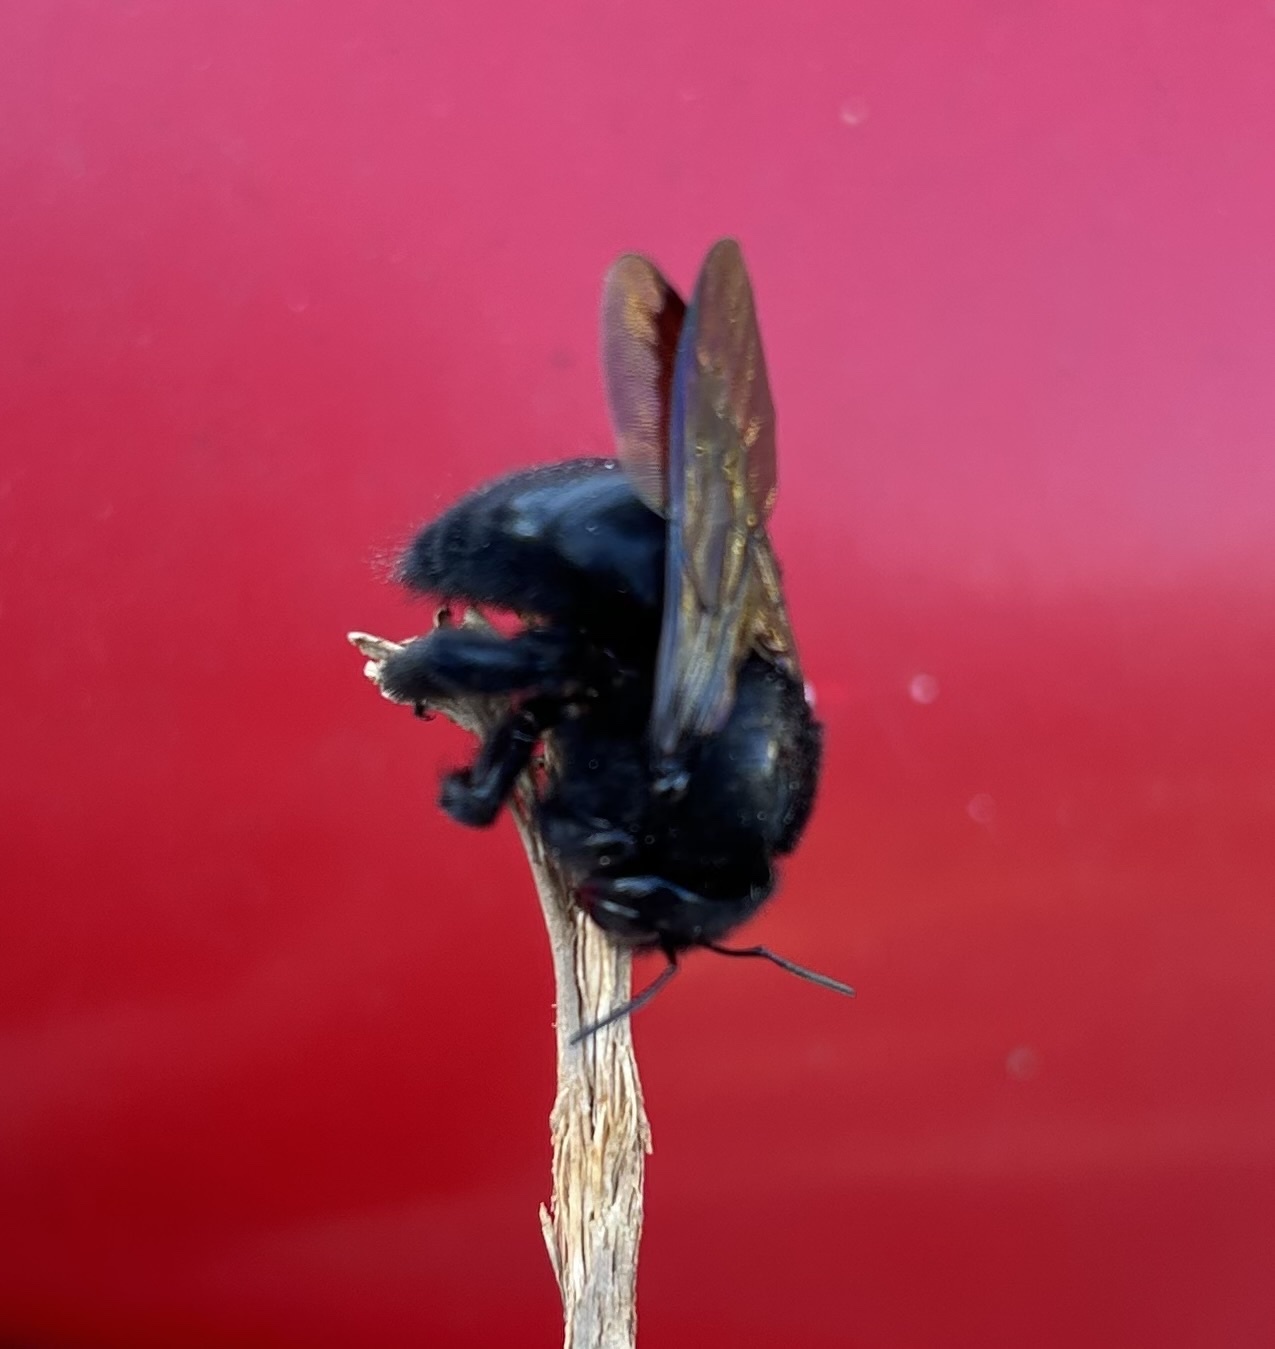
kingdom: Animalia
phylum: Arthropoda
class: Insecta
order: Hymenoptera
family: Apidae
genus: Xylocopa
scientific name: Xylocopa sonorina
